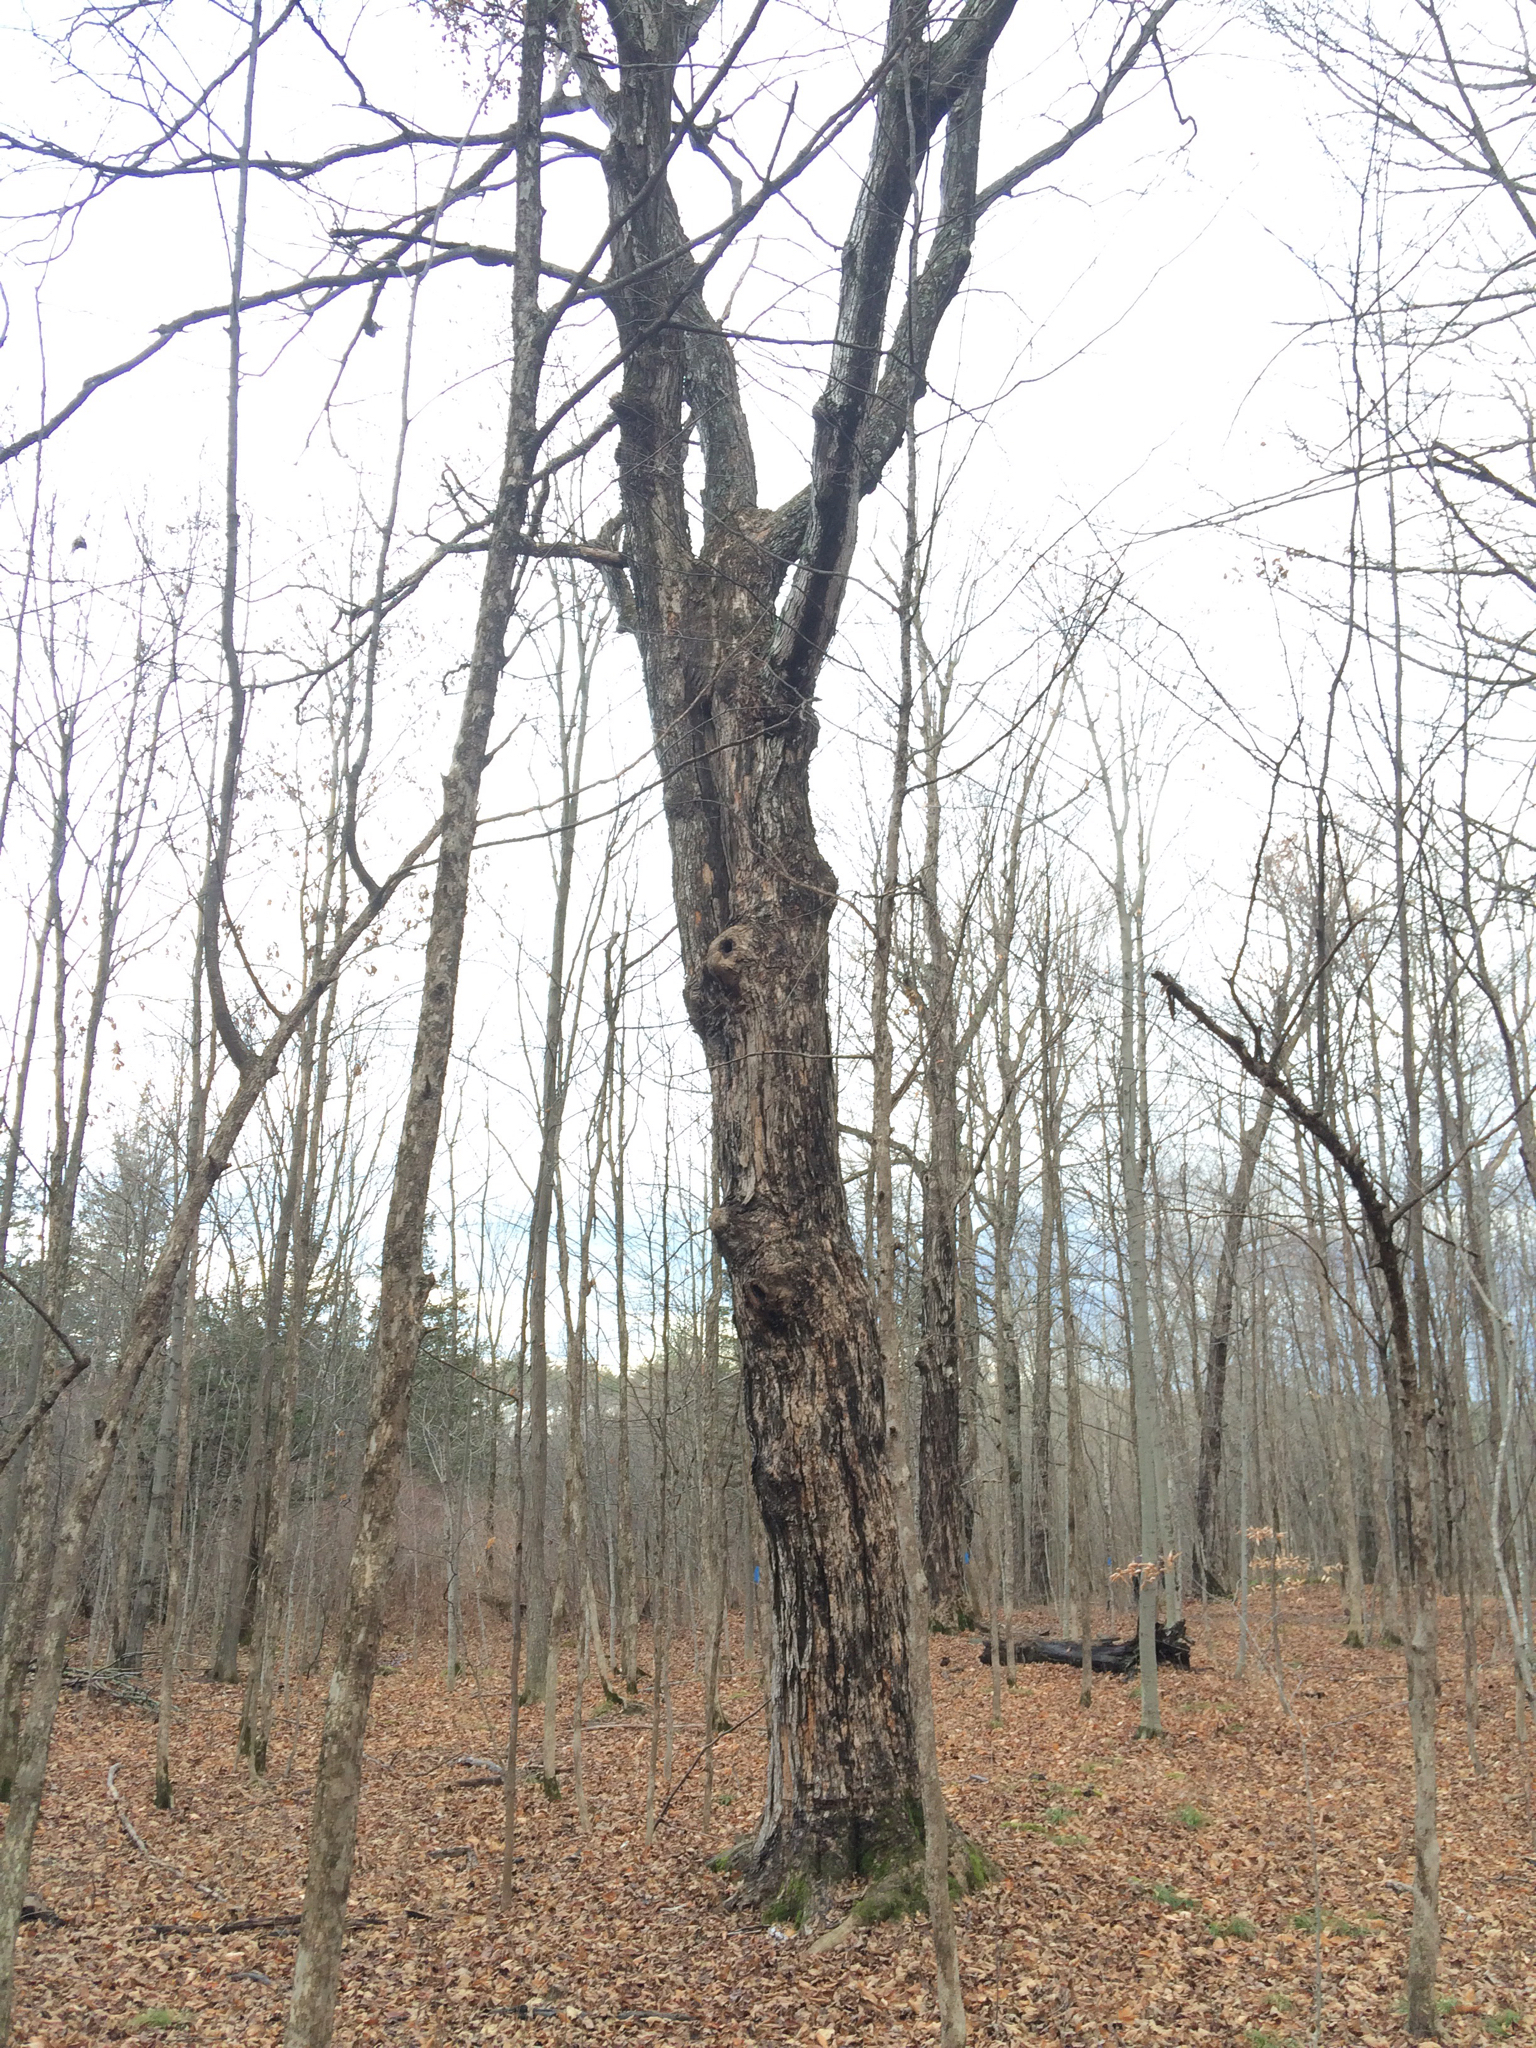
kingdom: Plantae
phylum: Tracheophyta
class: Magnoliopsida
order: Sapindales
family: Sapindaceae
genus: Acer
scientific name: Acer saccharum
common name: Sugar maple
